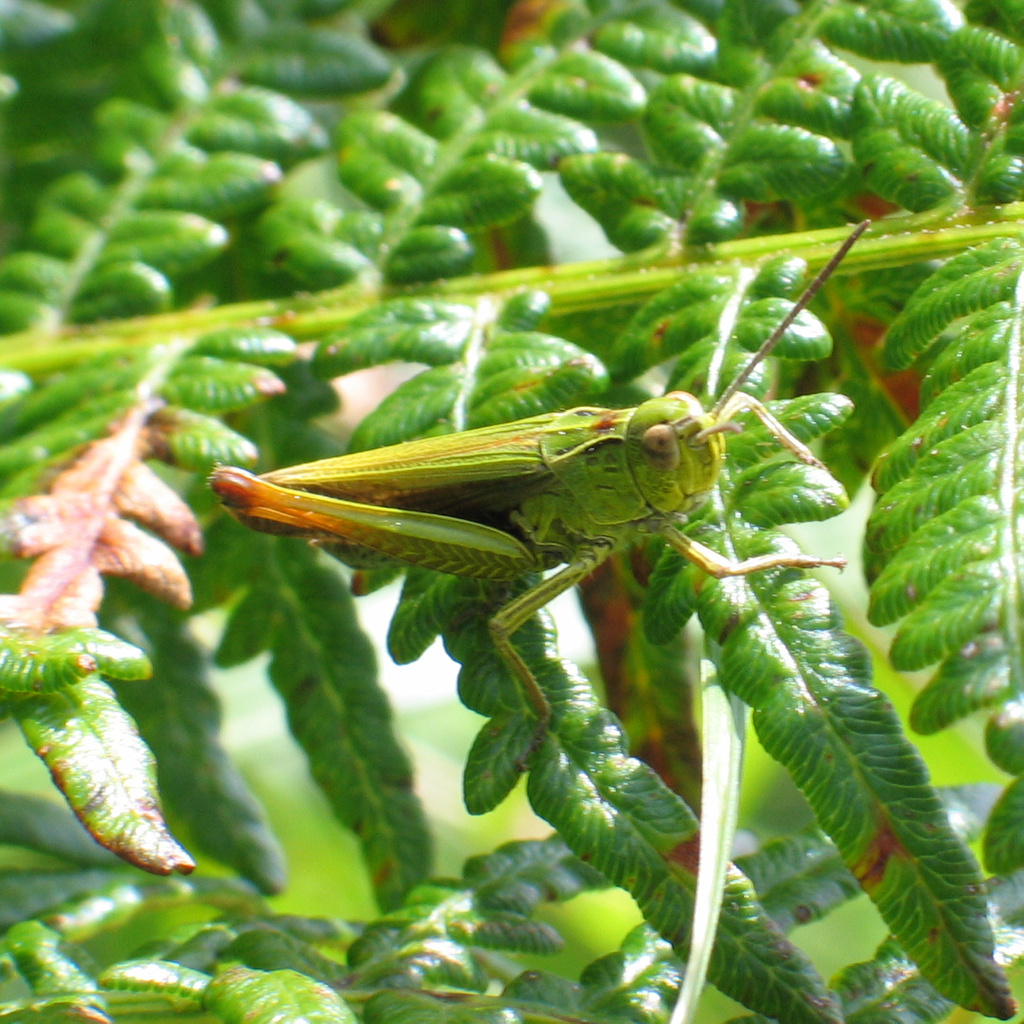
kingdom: Animalia
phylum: Arthropoda
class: Insecta
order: Orthoptera
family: Acrididae
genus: Omocestus
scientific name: Omocestus viridulus
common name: Common green grasshopper
